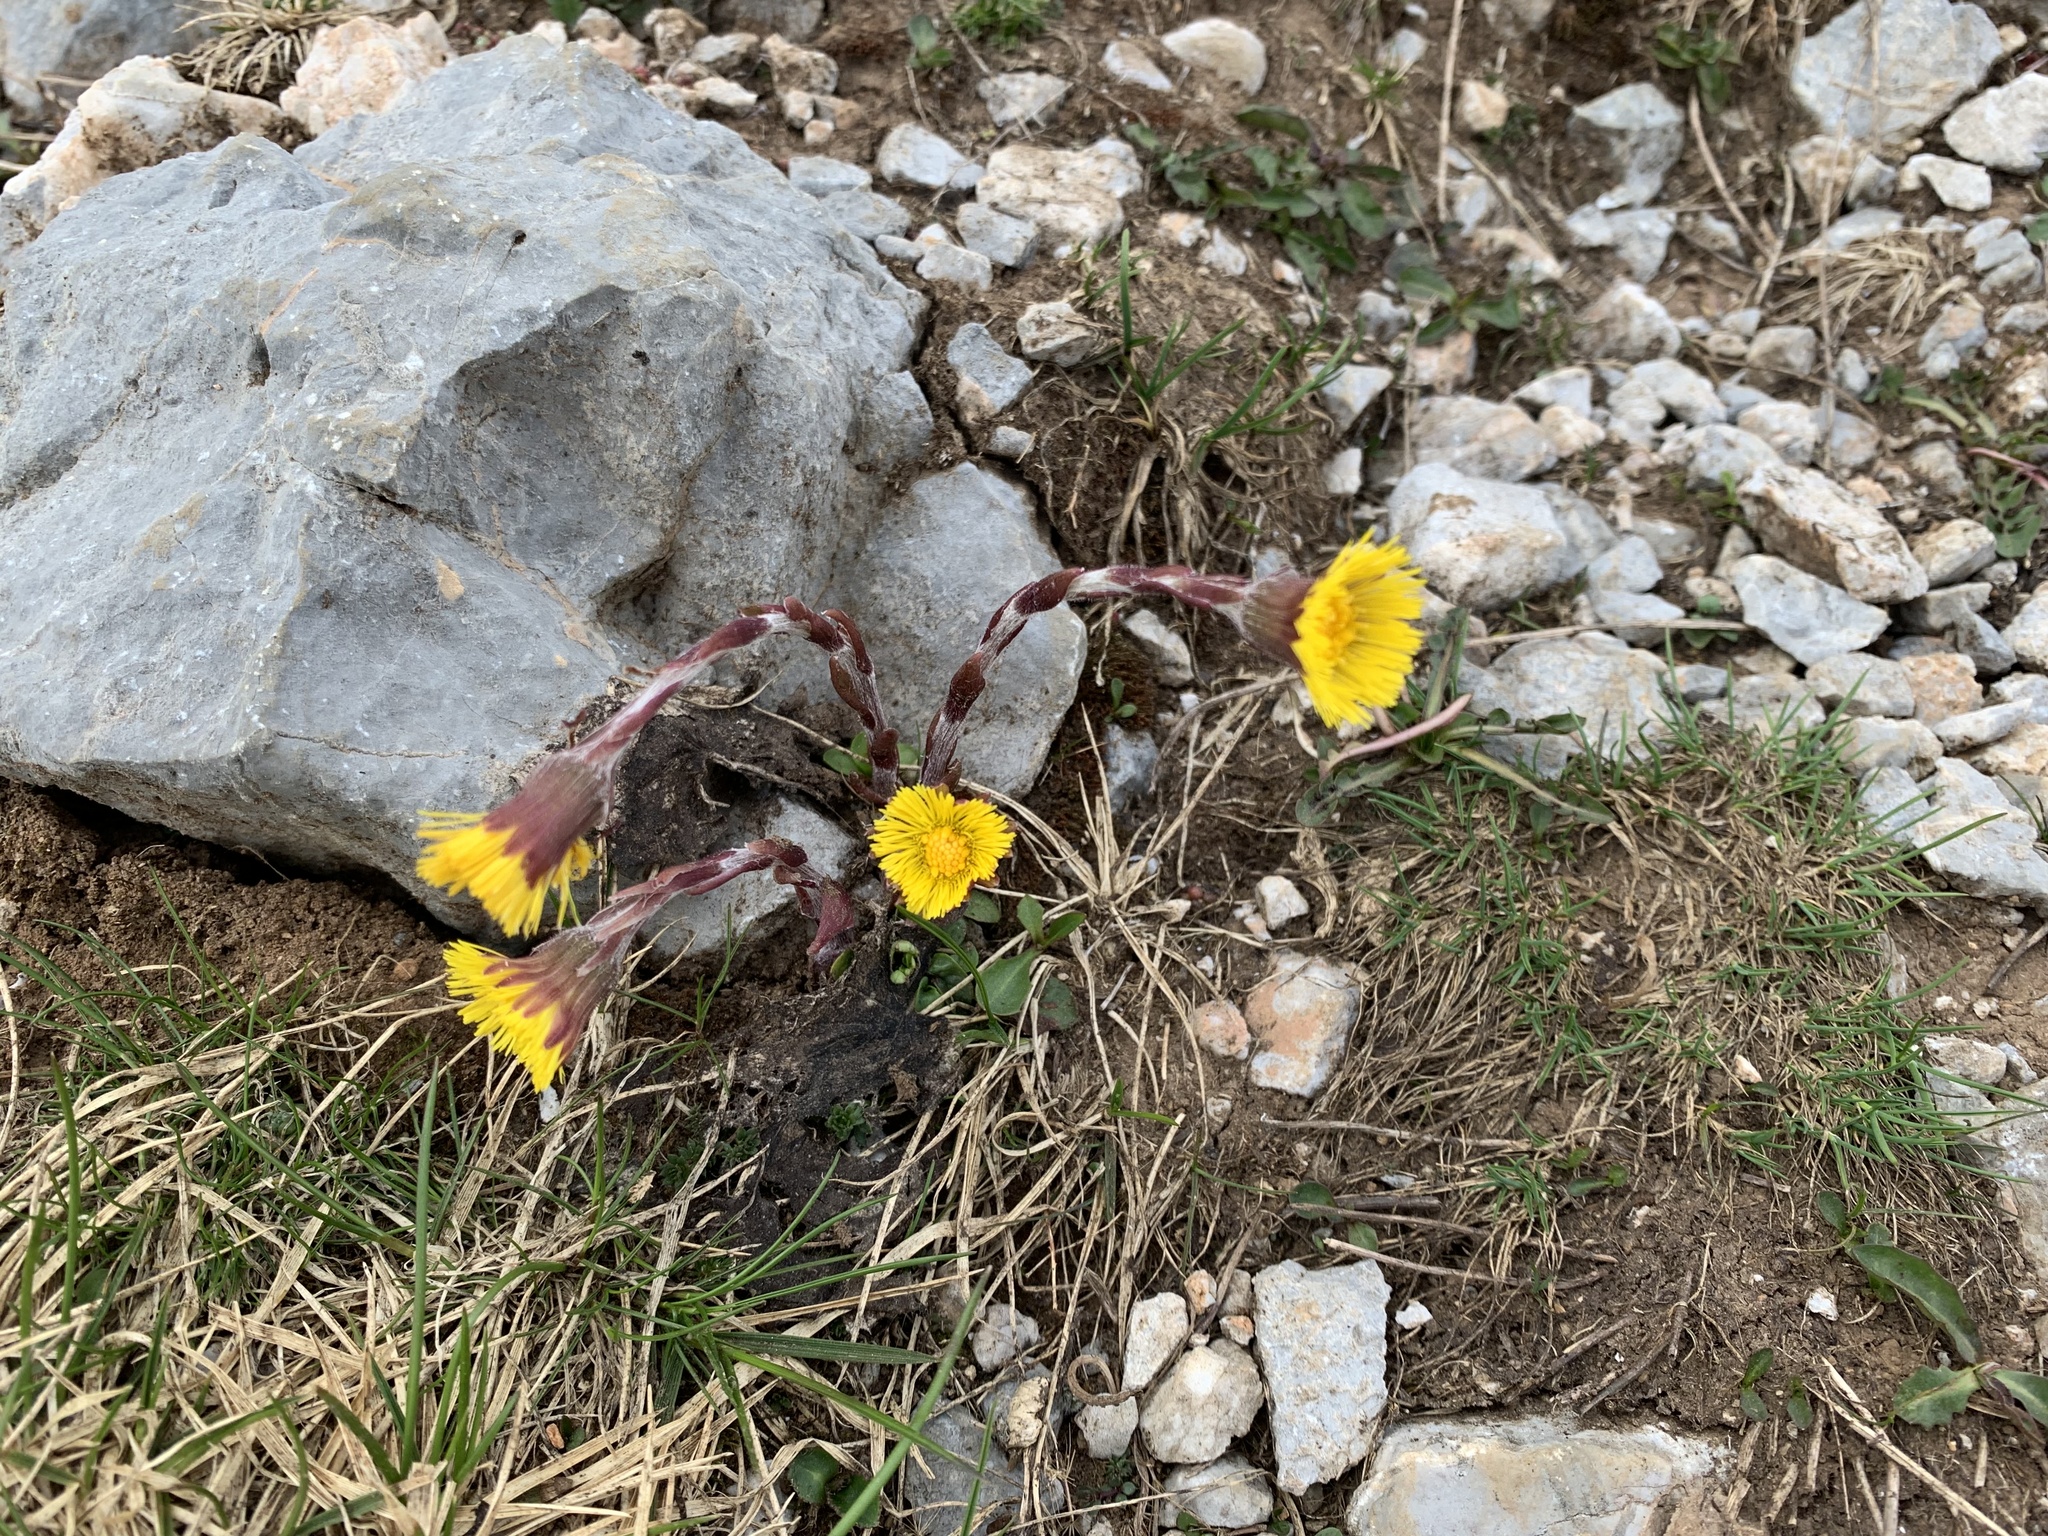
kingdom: Plantae
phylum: Tracheophyta
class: Magnoliopsida
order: Asterales
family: Asteraceae
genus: Tussilago
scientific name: Tussilago farfara
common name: Coltsfoot
